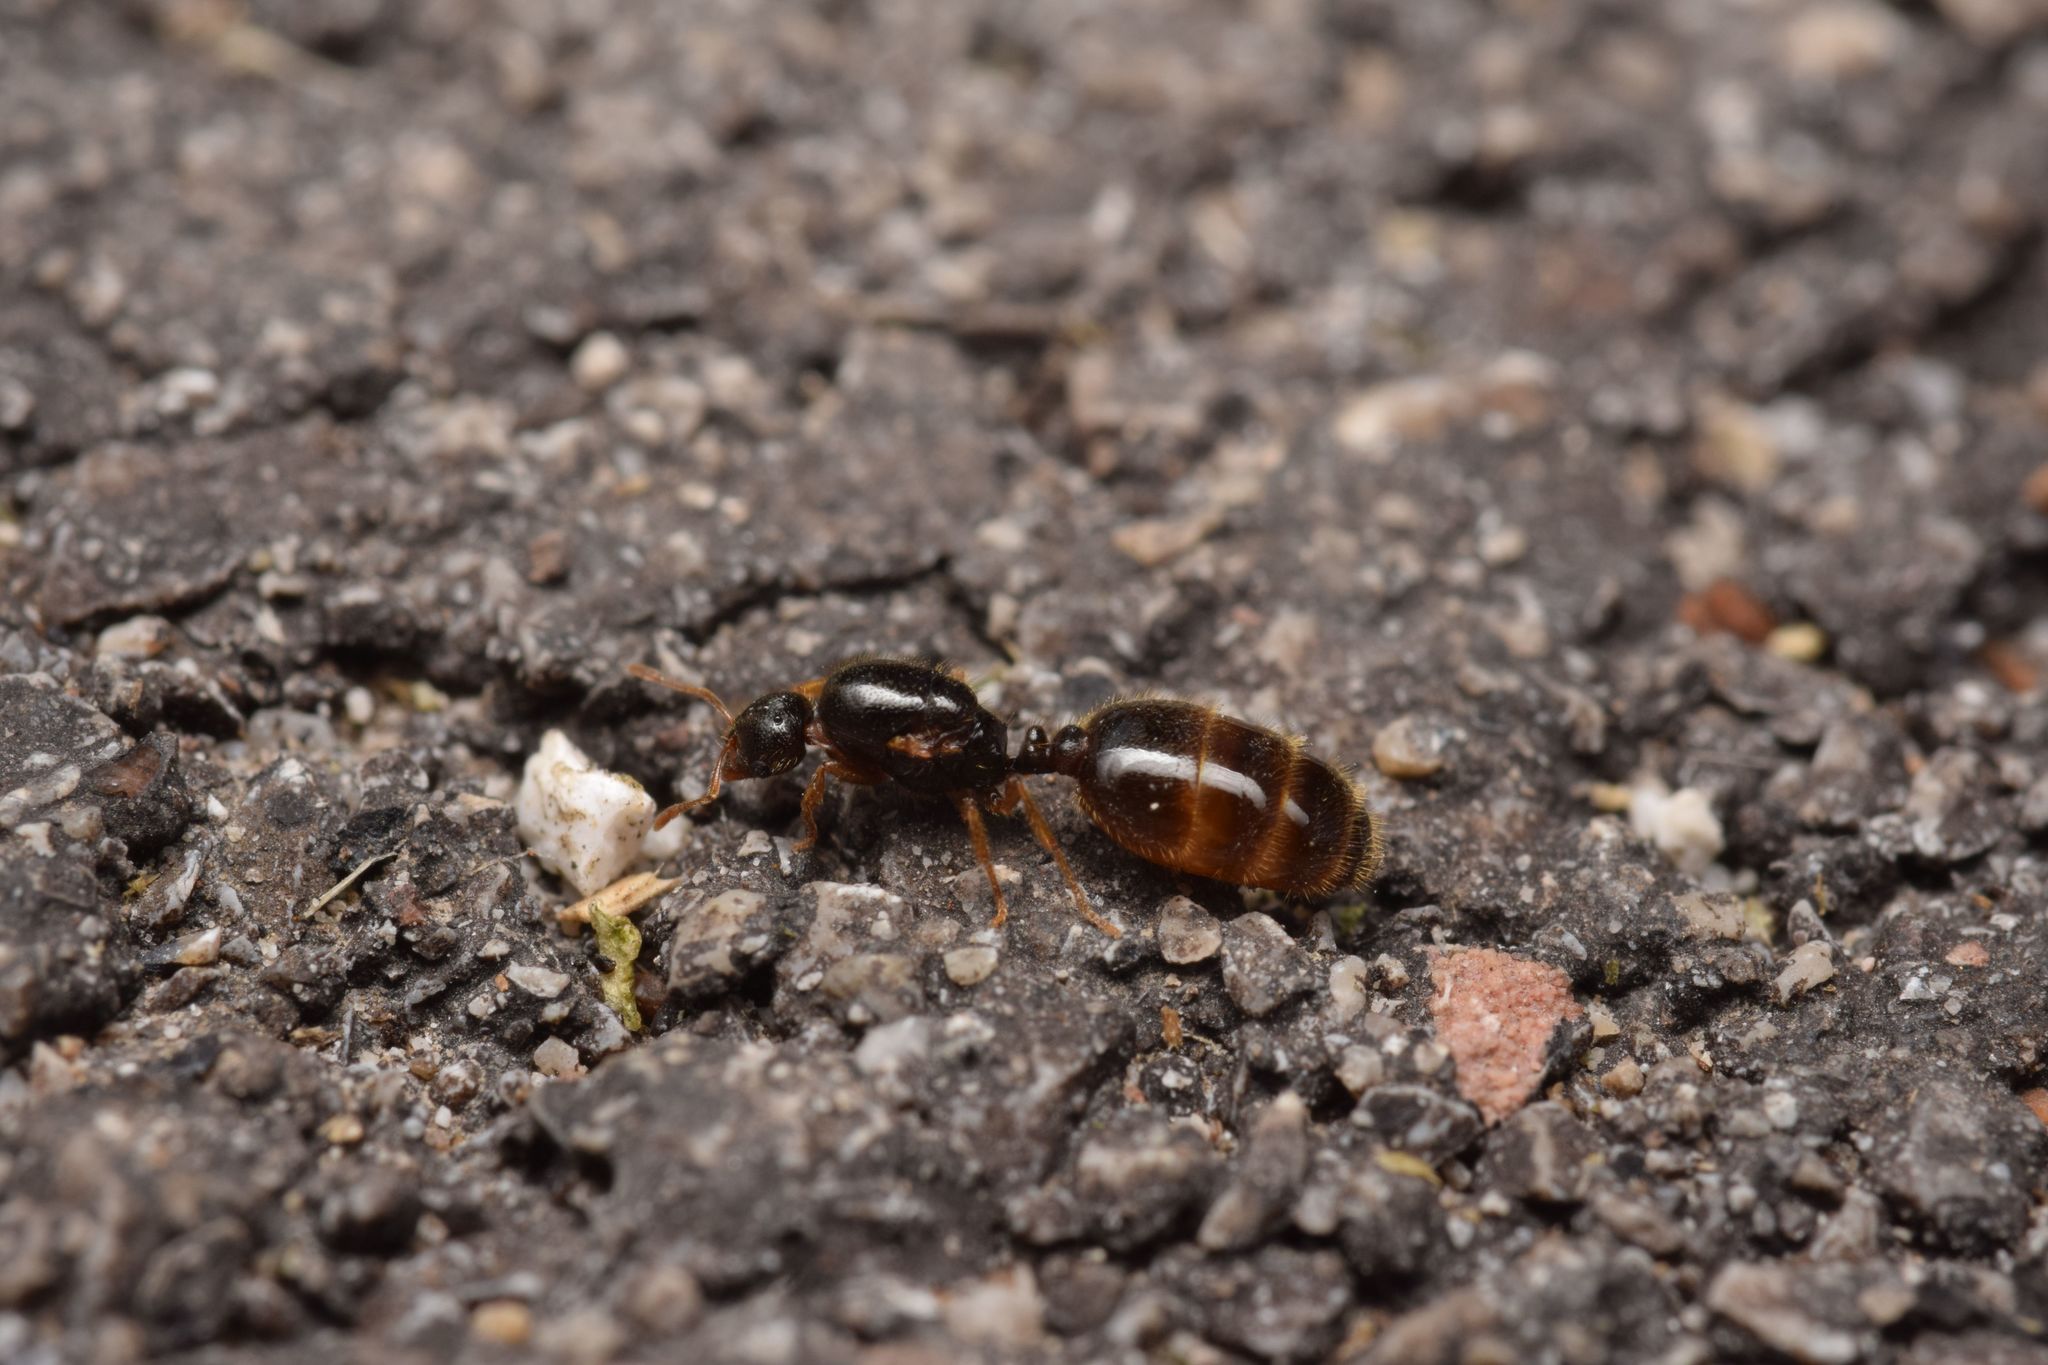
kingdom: Animalia
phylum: Arthropoda
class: Insecta
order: Hymenoptera
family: Formicidae
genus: Solenopsis
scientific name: Solenopsis fugax
